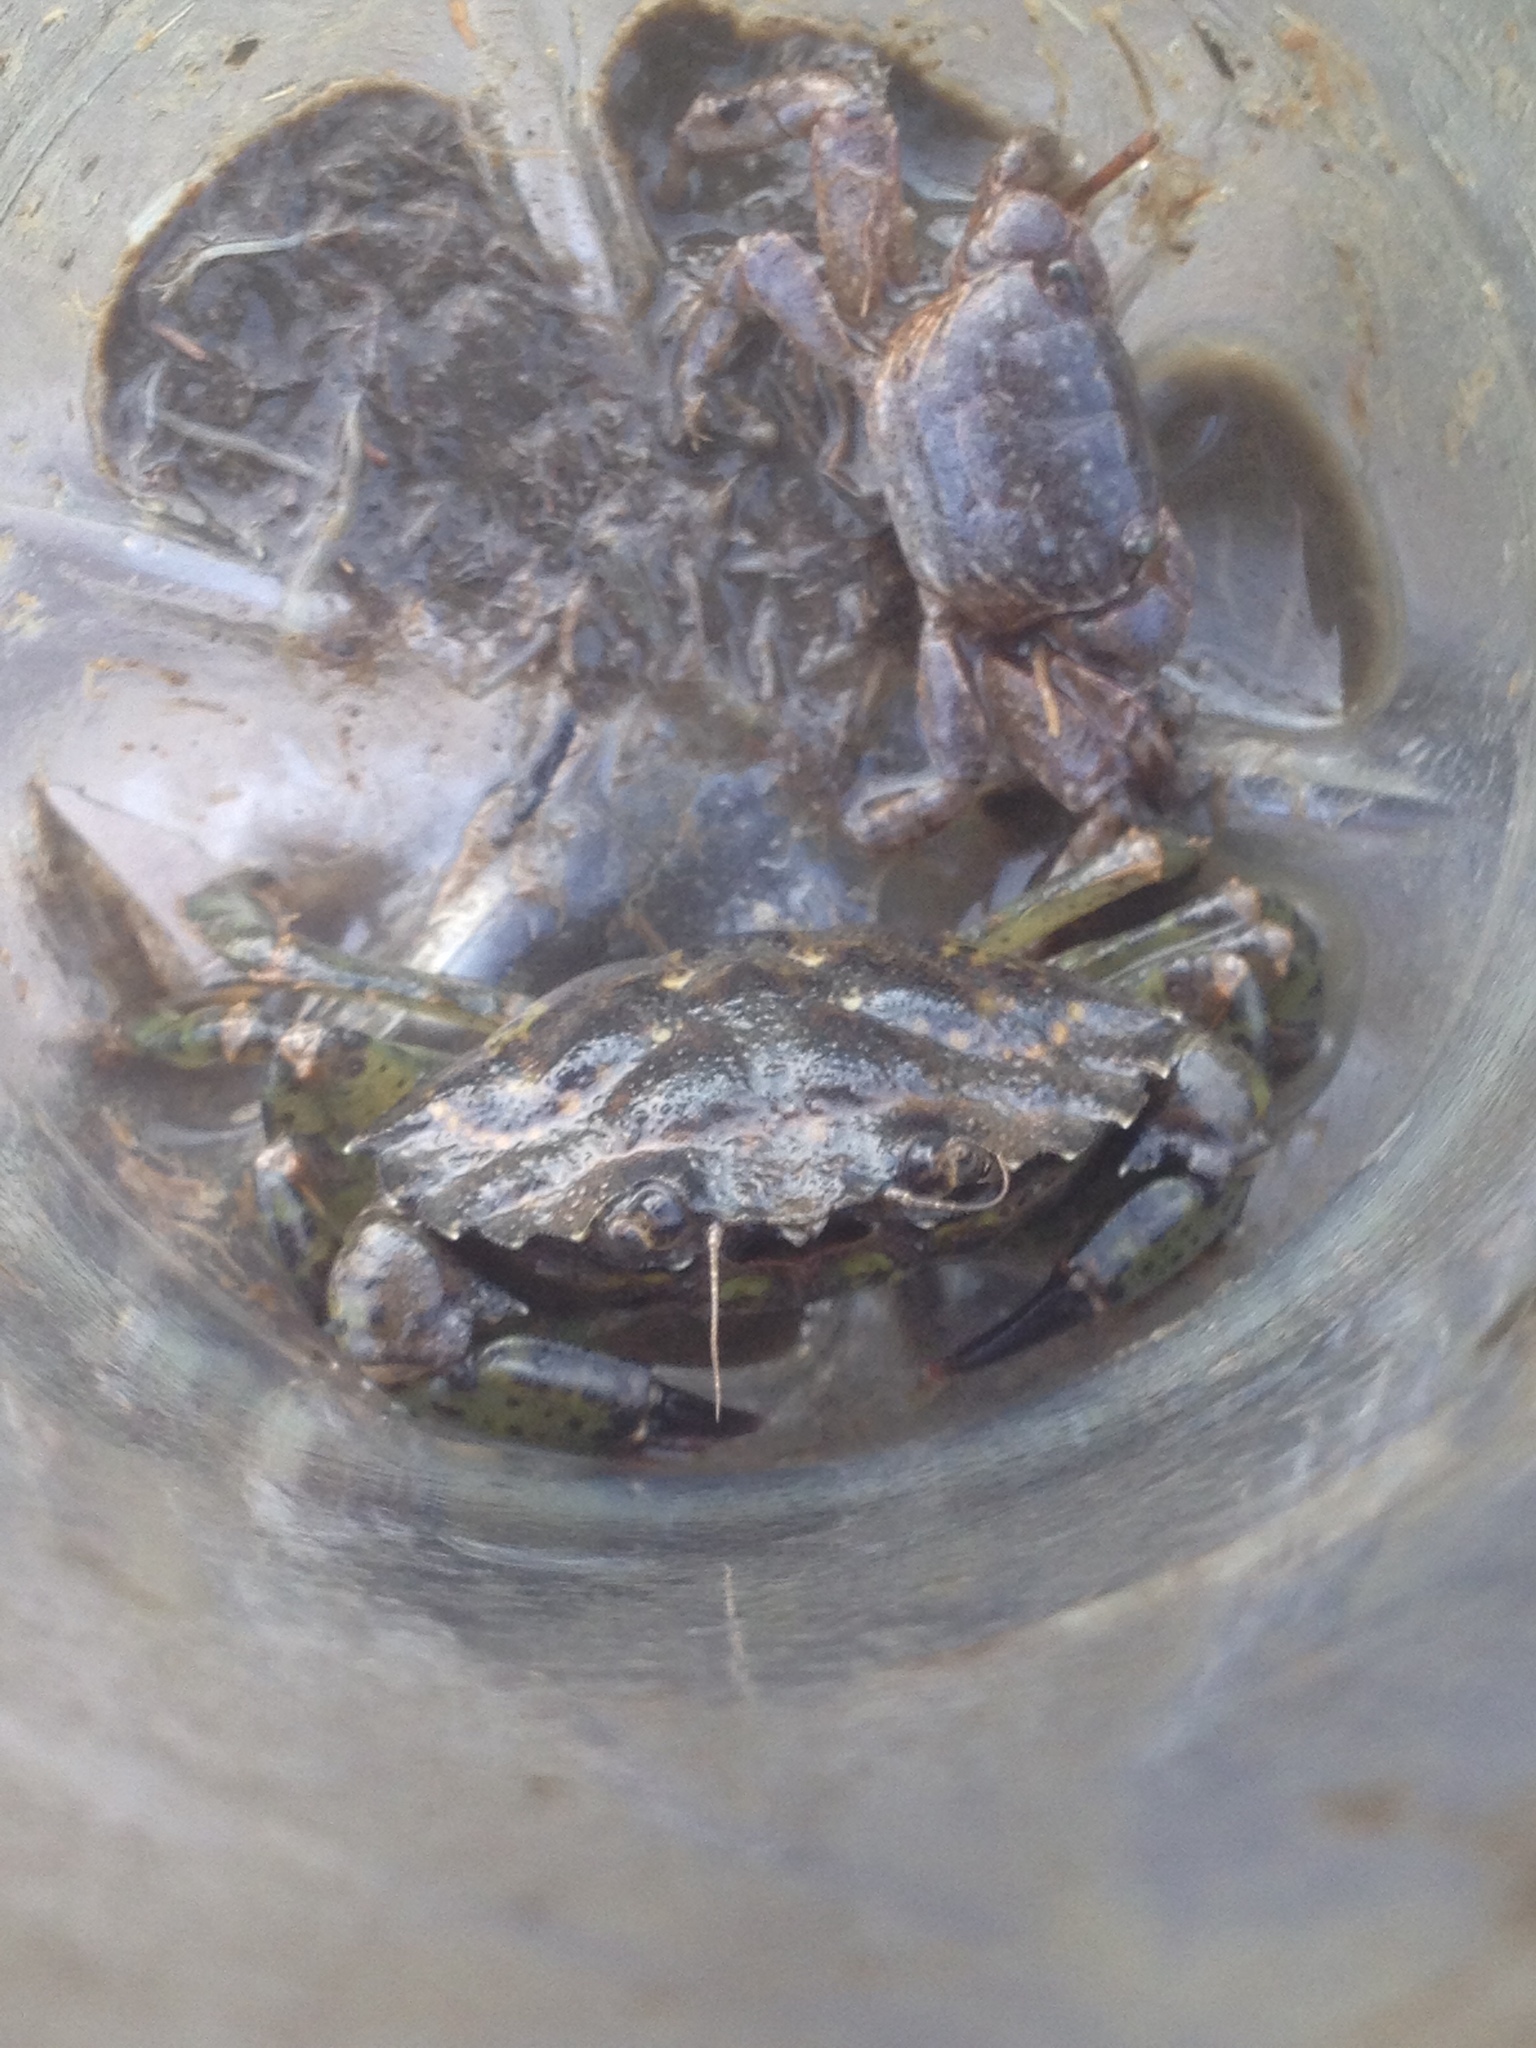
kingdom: Animalia
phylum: Arthropoda
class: Malacostraca
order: Decapoda
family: Carcinidae
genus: Carcinus
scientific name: Carcinus maenas
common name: European green crab
